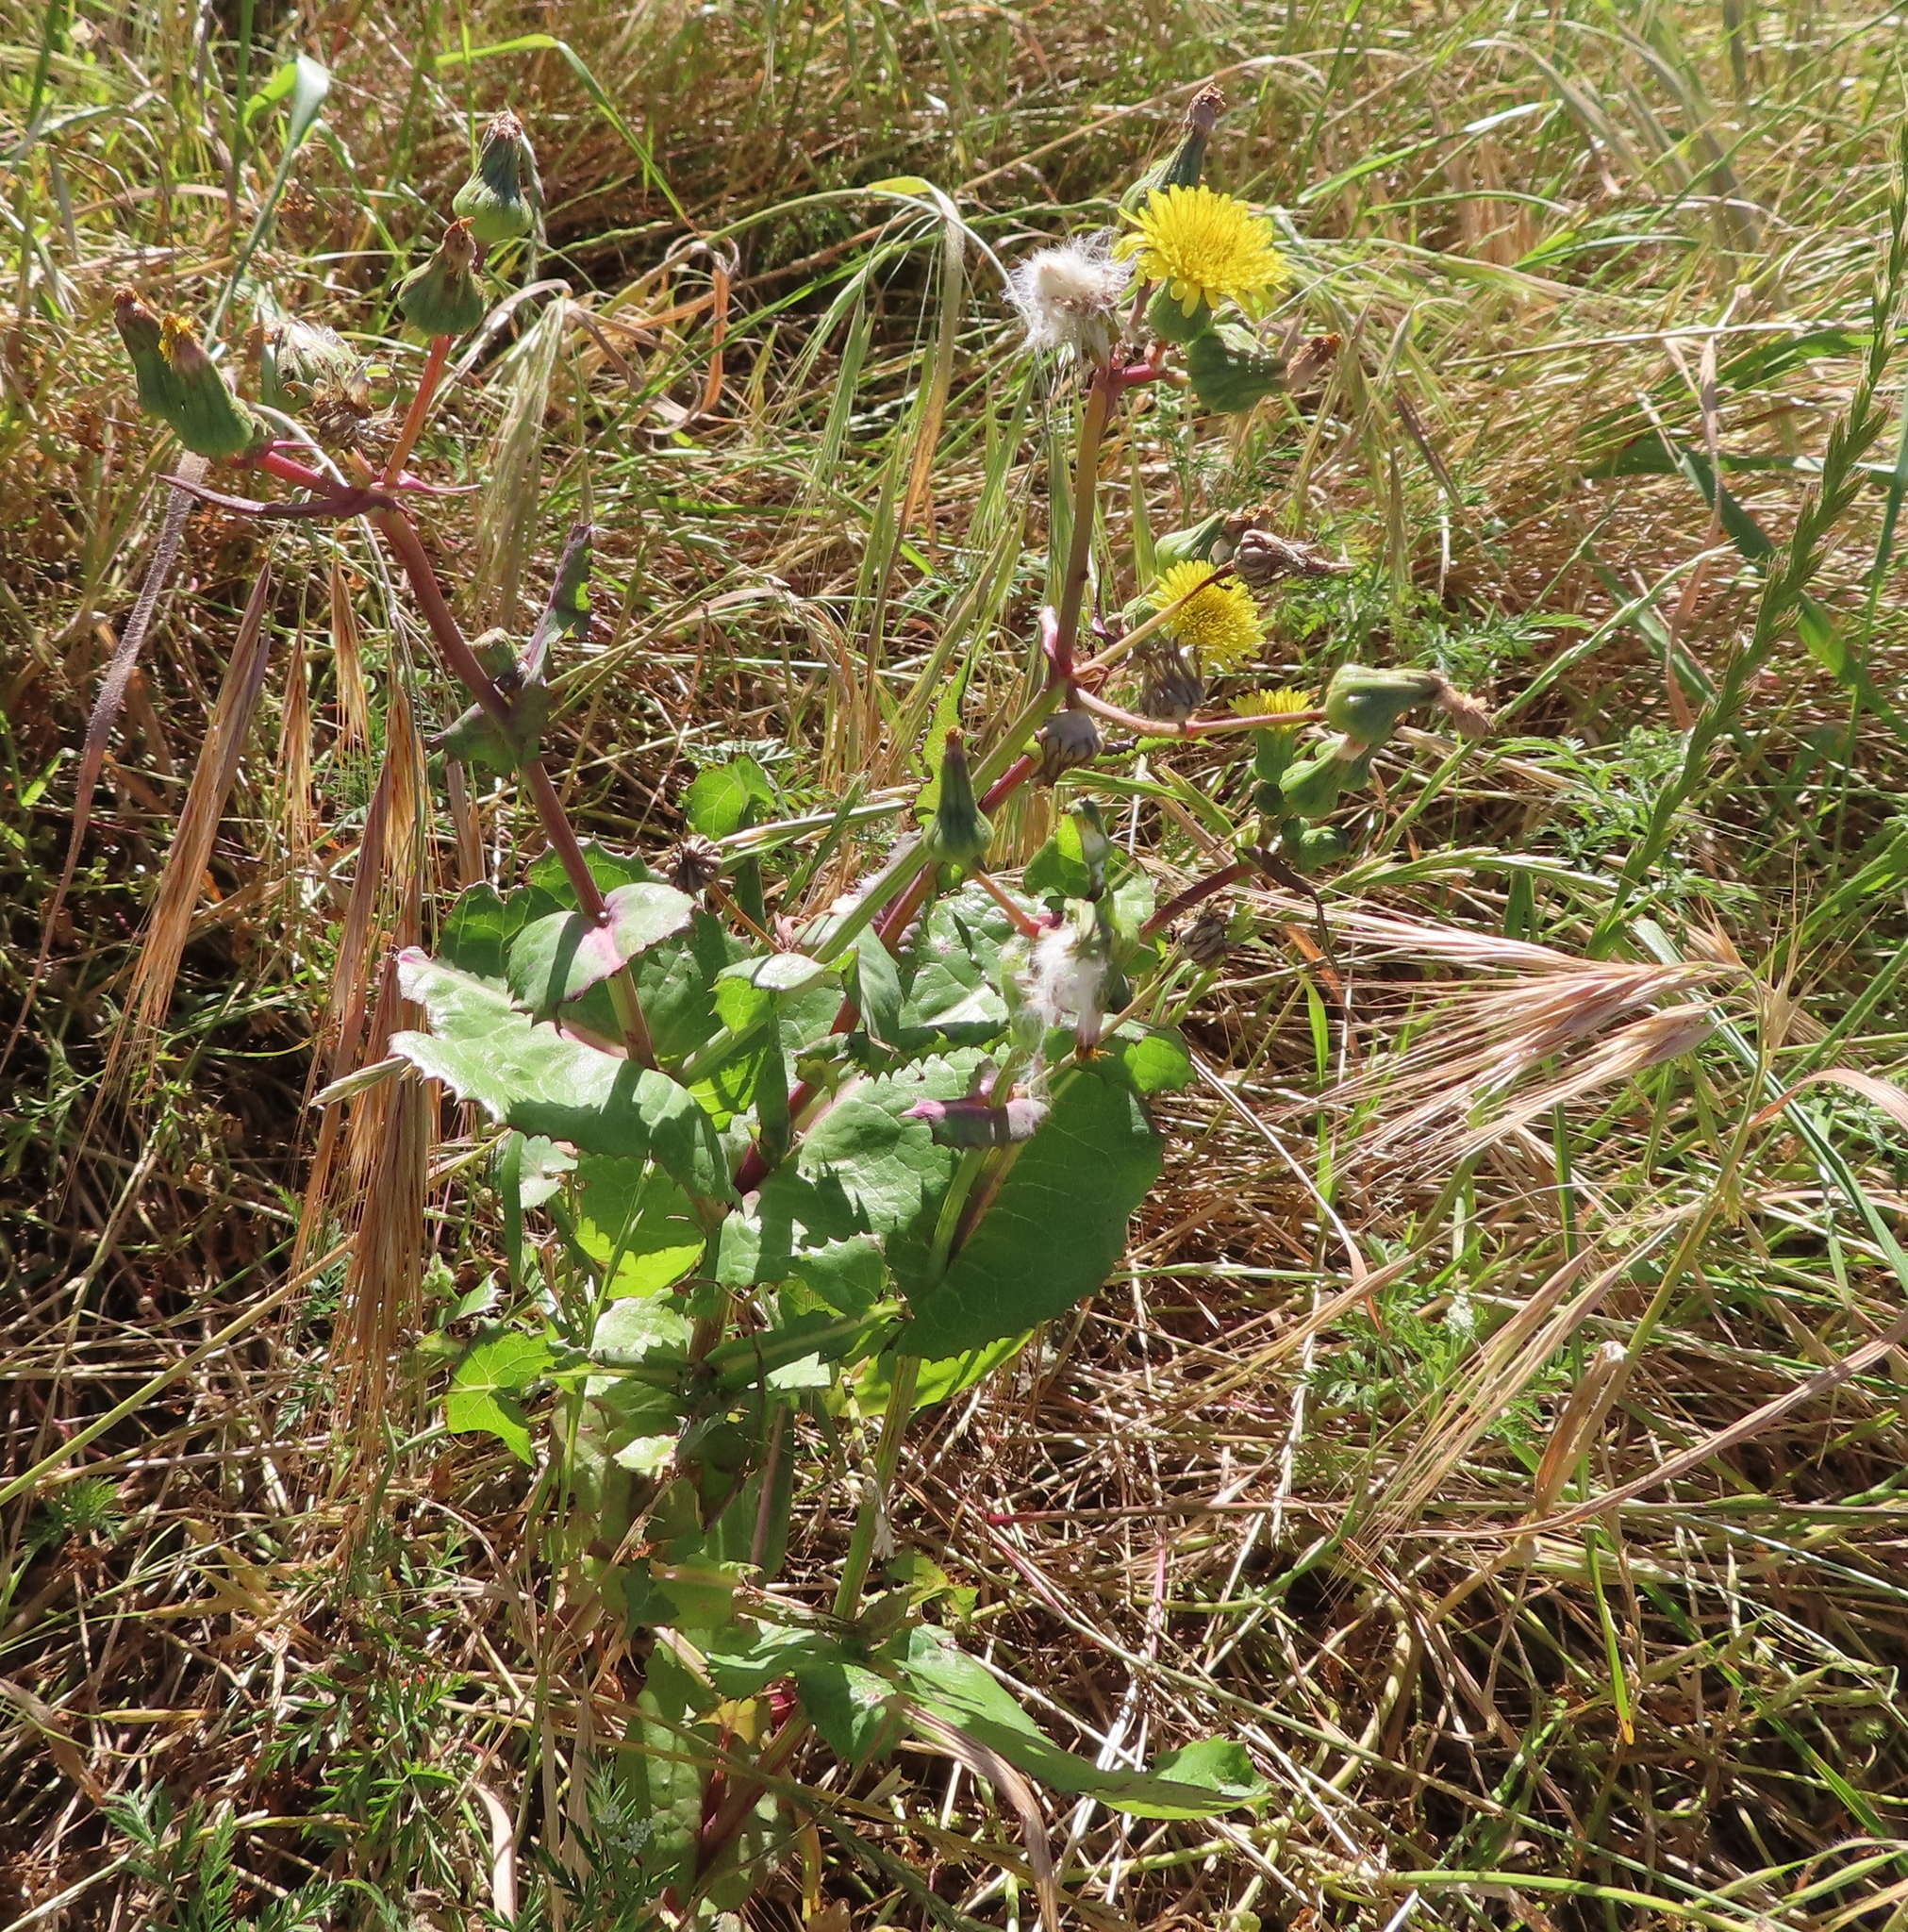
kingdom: Plantae
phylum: Tracheophyta
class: Magnoliopsida
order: Asterales
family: Asteraceae
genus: Sonchus
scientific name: Sonchus oleraceus
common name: Common sowthistle
